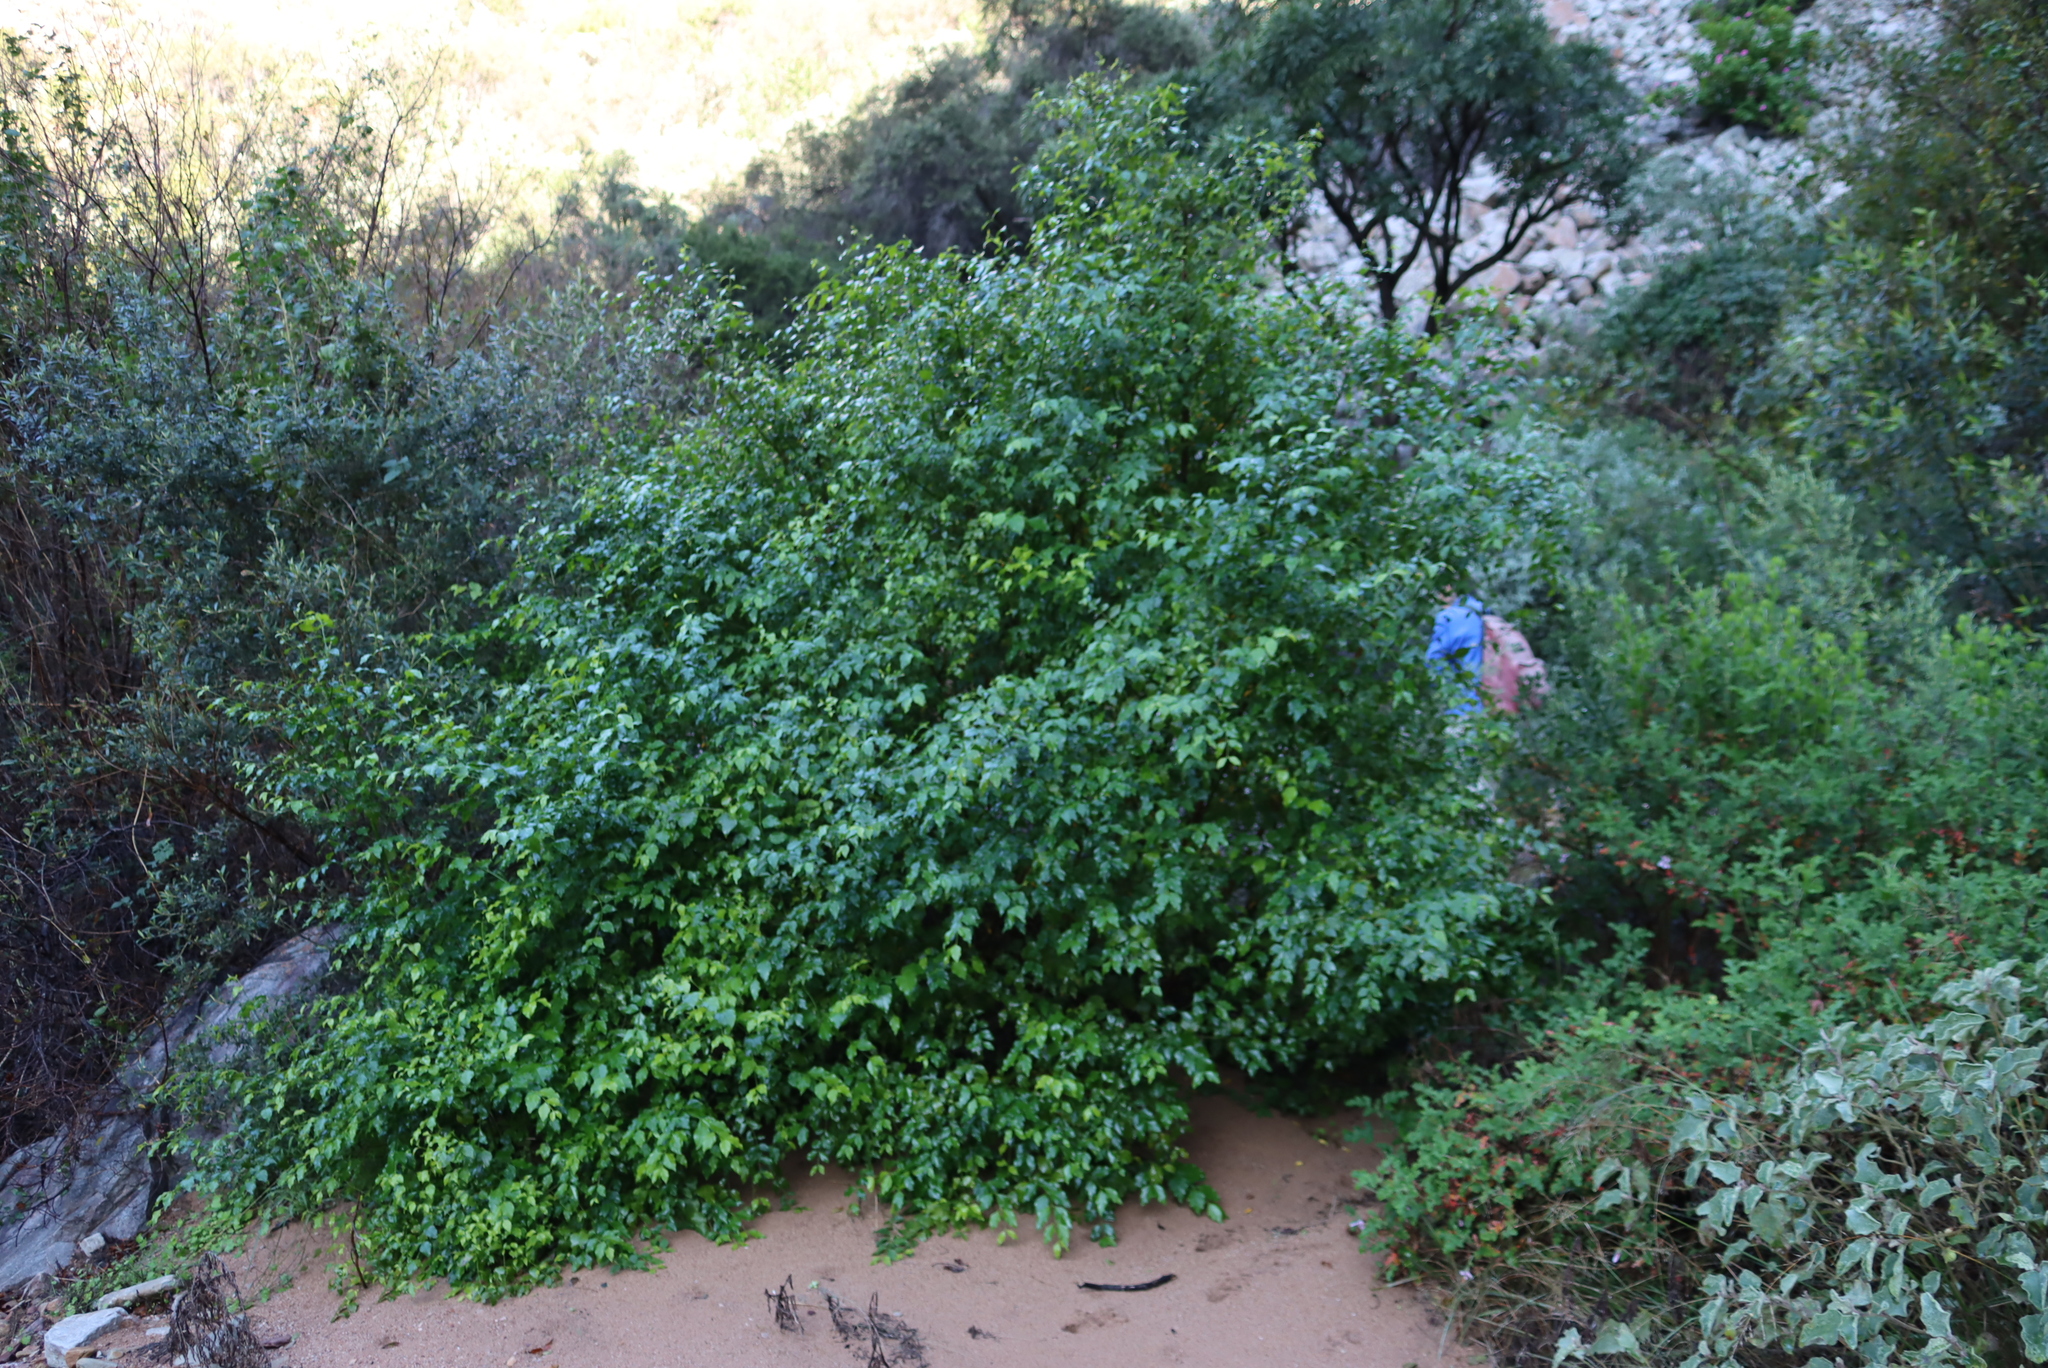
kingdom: Plantae
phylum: Tracheophyta
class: Magnoliopsida
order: Lamiales
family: Stilbaceae
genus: Halleria
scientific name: Halleria lucida
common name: Tree fuschia
